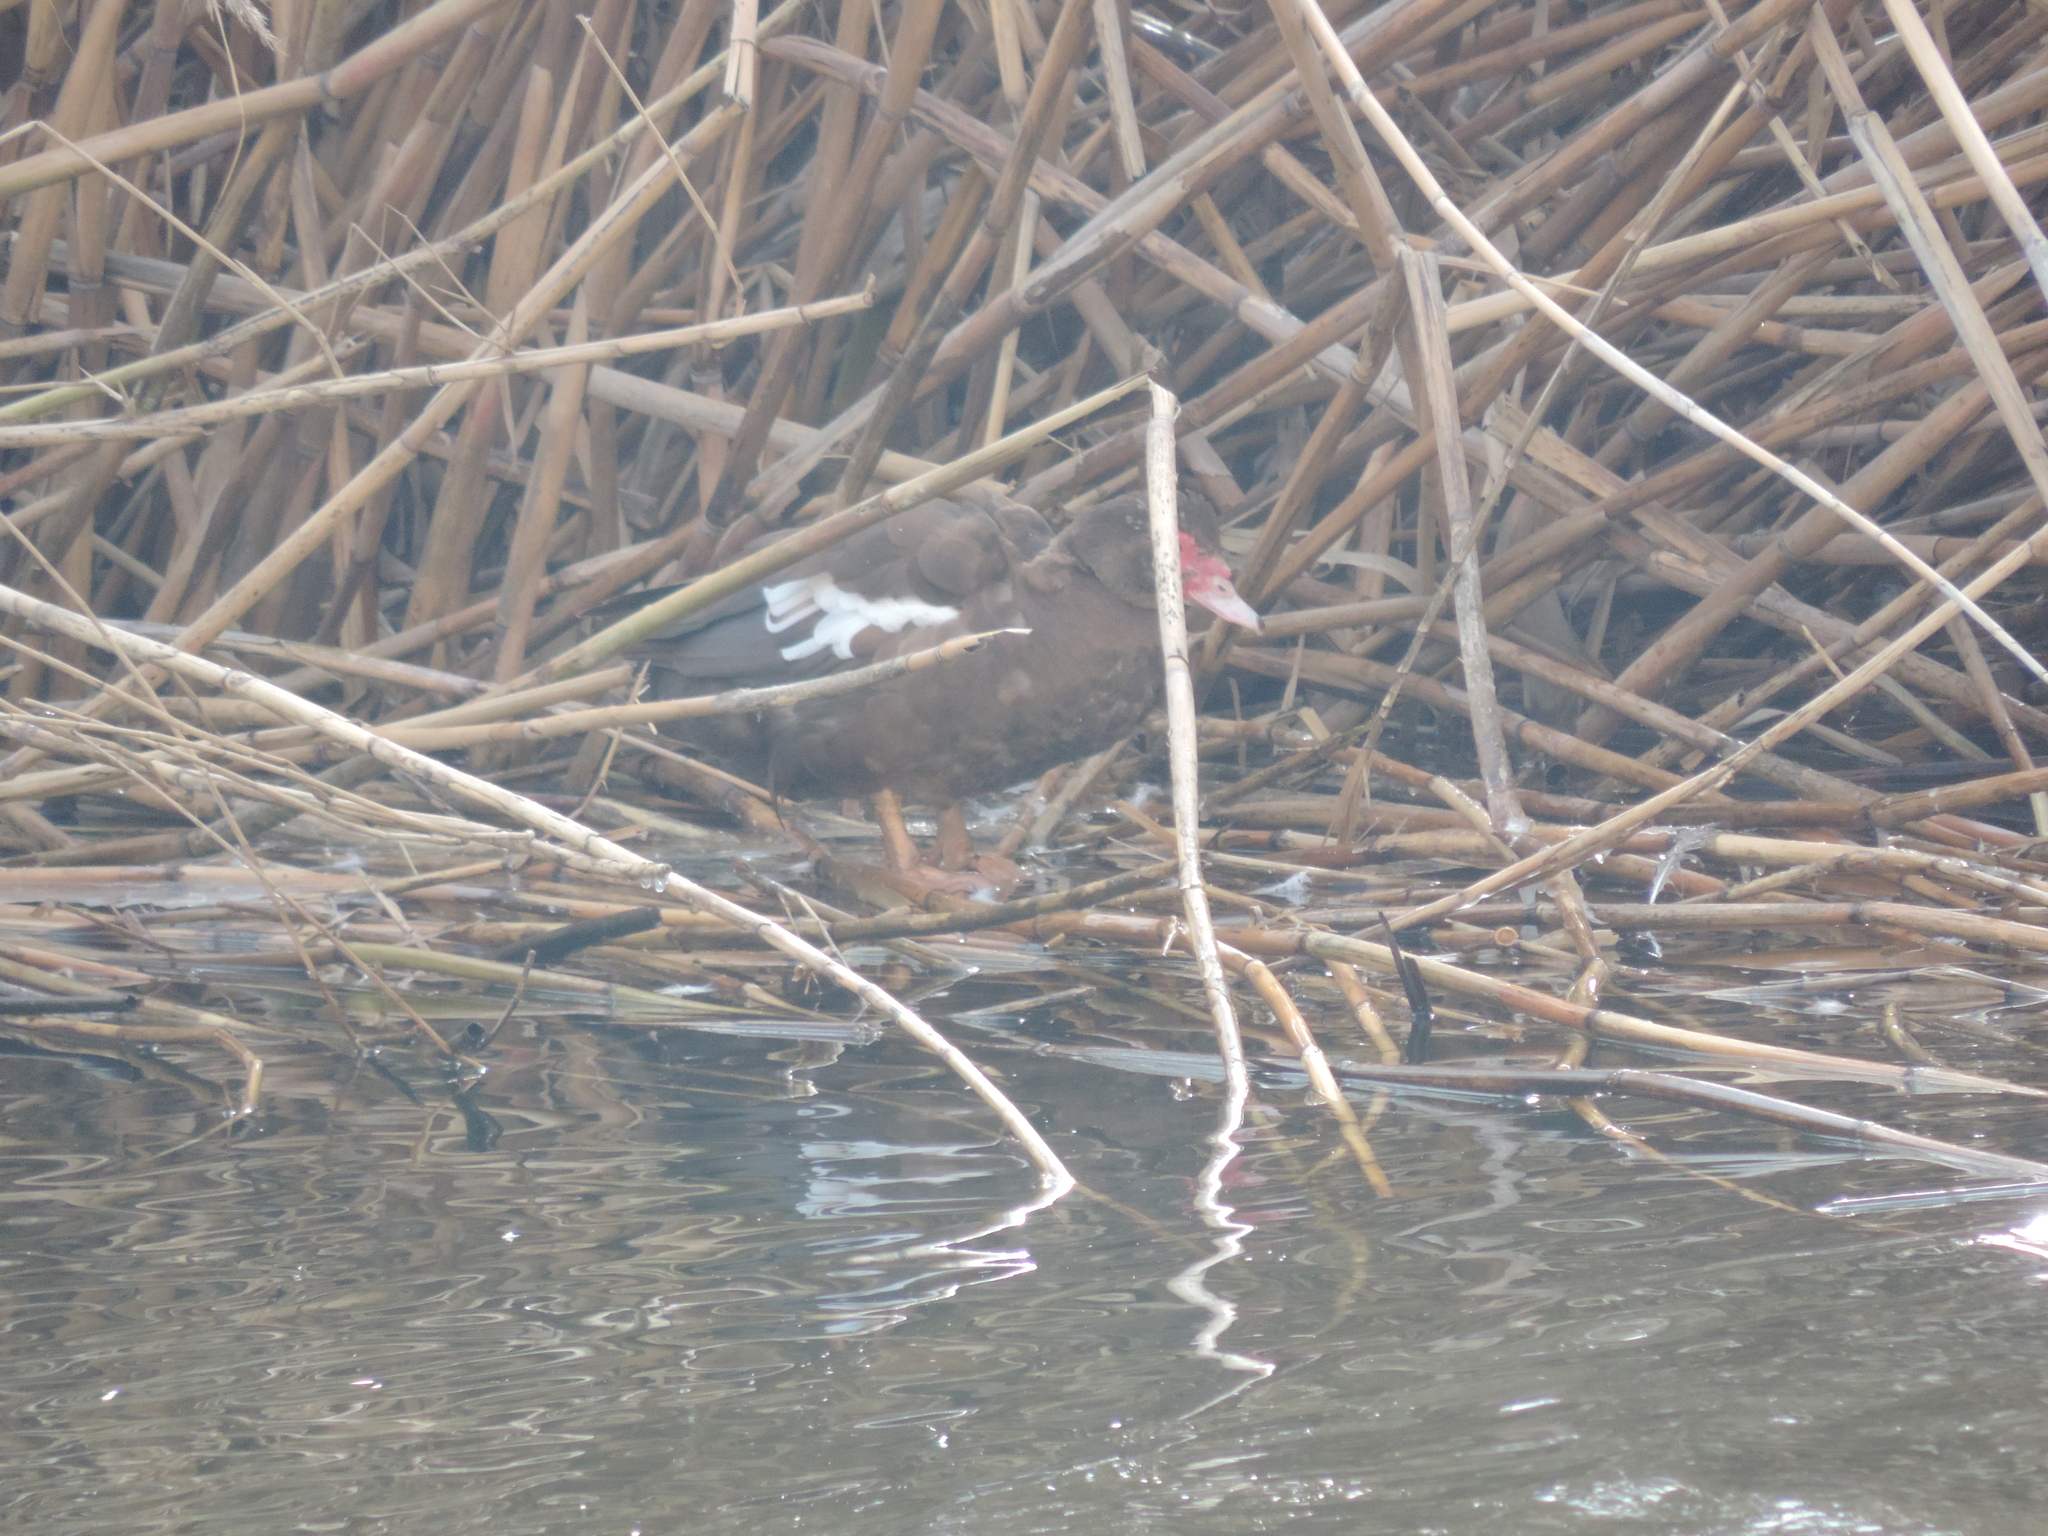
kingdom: Animalia
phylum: Chordata
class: Aves
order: Anseriformes
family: Anatidae
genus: Cairina
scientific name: Cairina moschata
